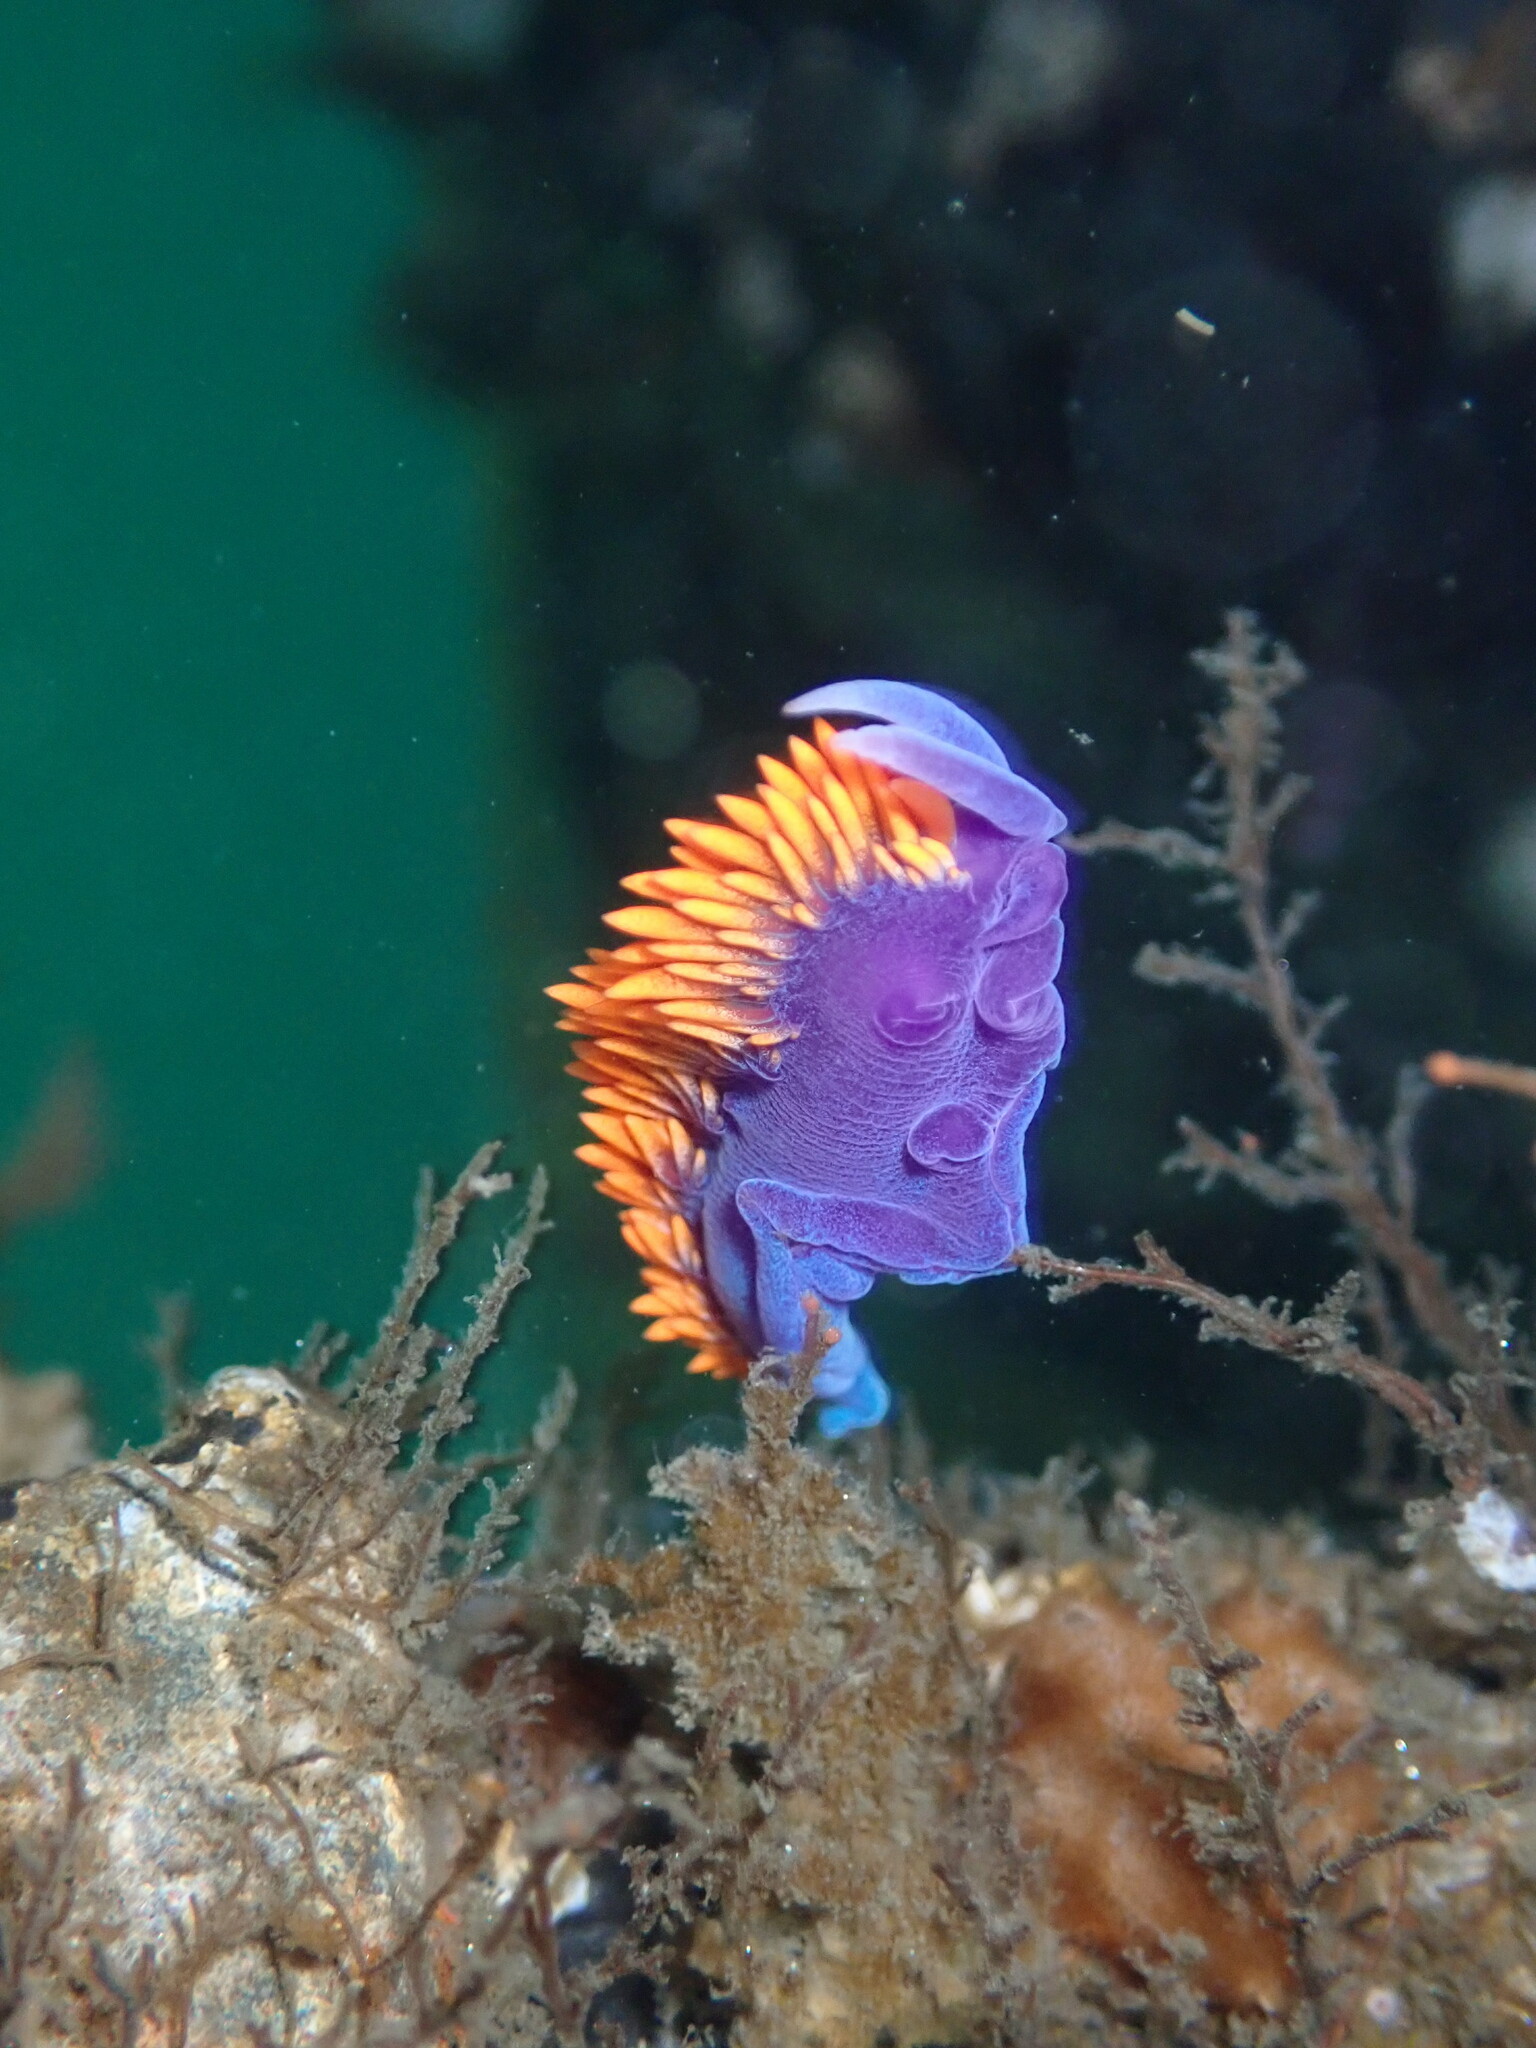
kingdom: Animalia
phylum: Mollusca
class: Gastropoda
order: Nudibranchia
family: Flabellinopsidae
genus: Flabellinopsis
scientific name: Flabellinopsis iodinea
